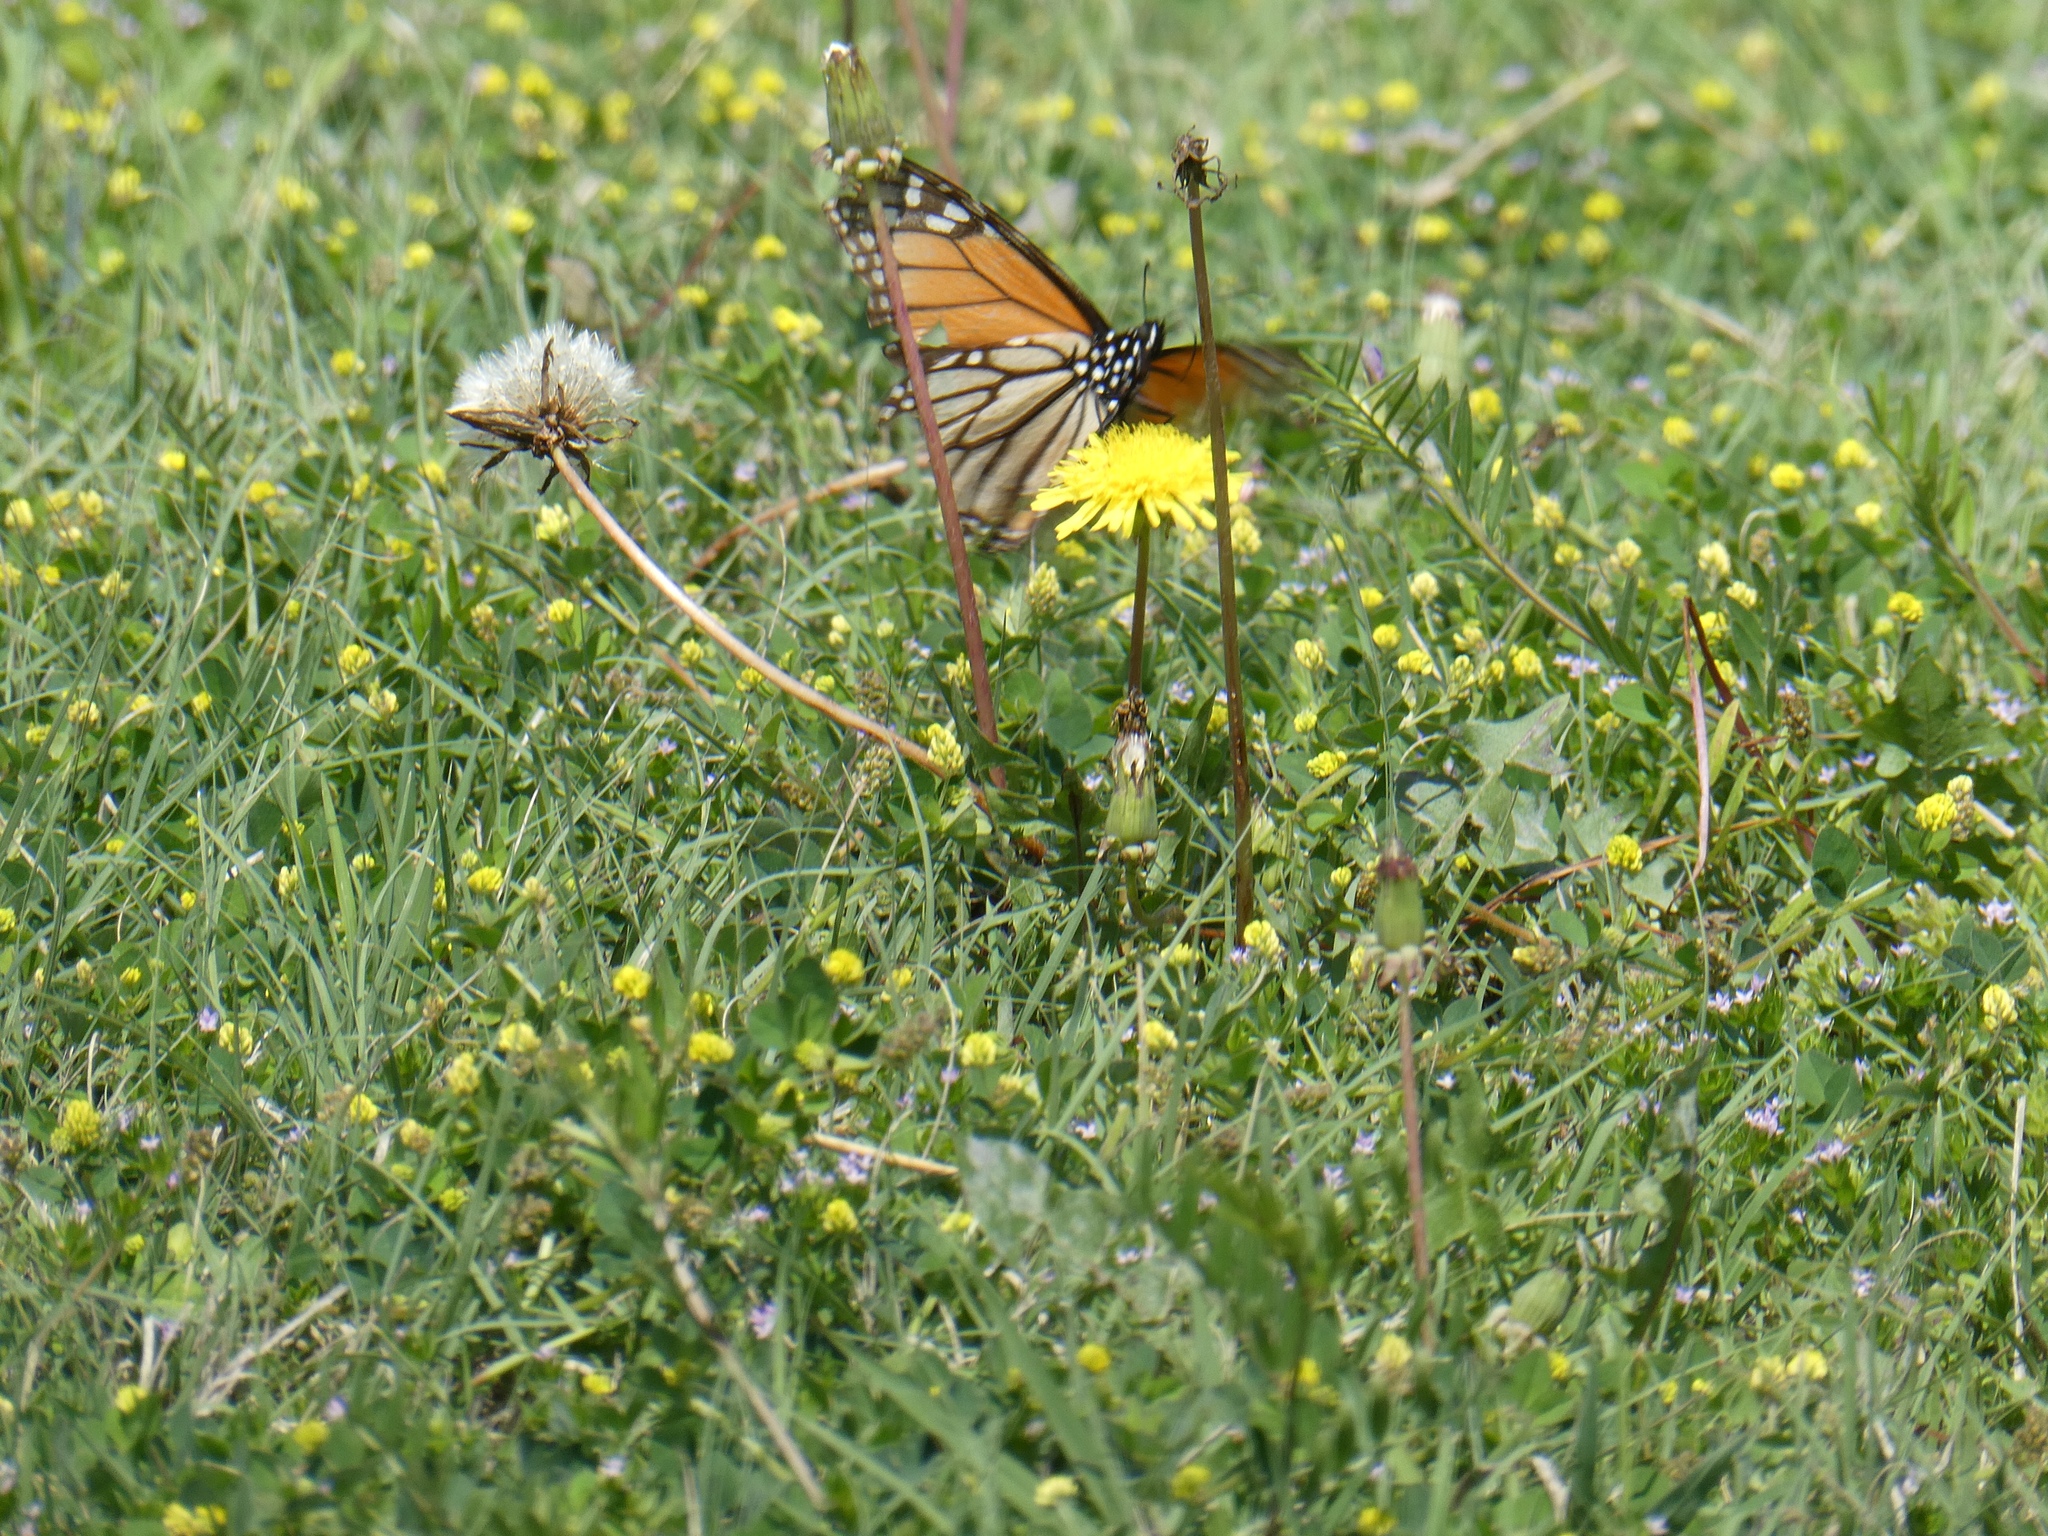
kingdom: Animalia
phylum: Arthropoda
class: Insecta
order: Lepidoptera
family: Nymphalidae
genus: Danaus
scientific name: Danaus plexippus
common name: Monarch
